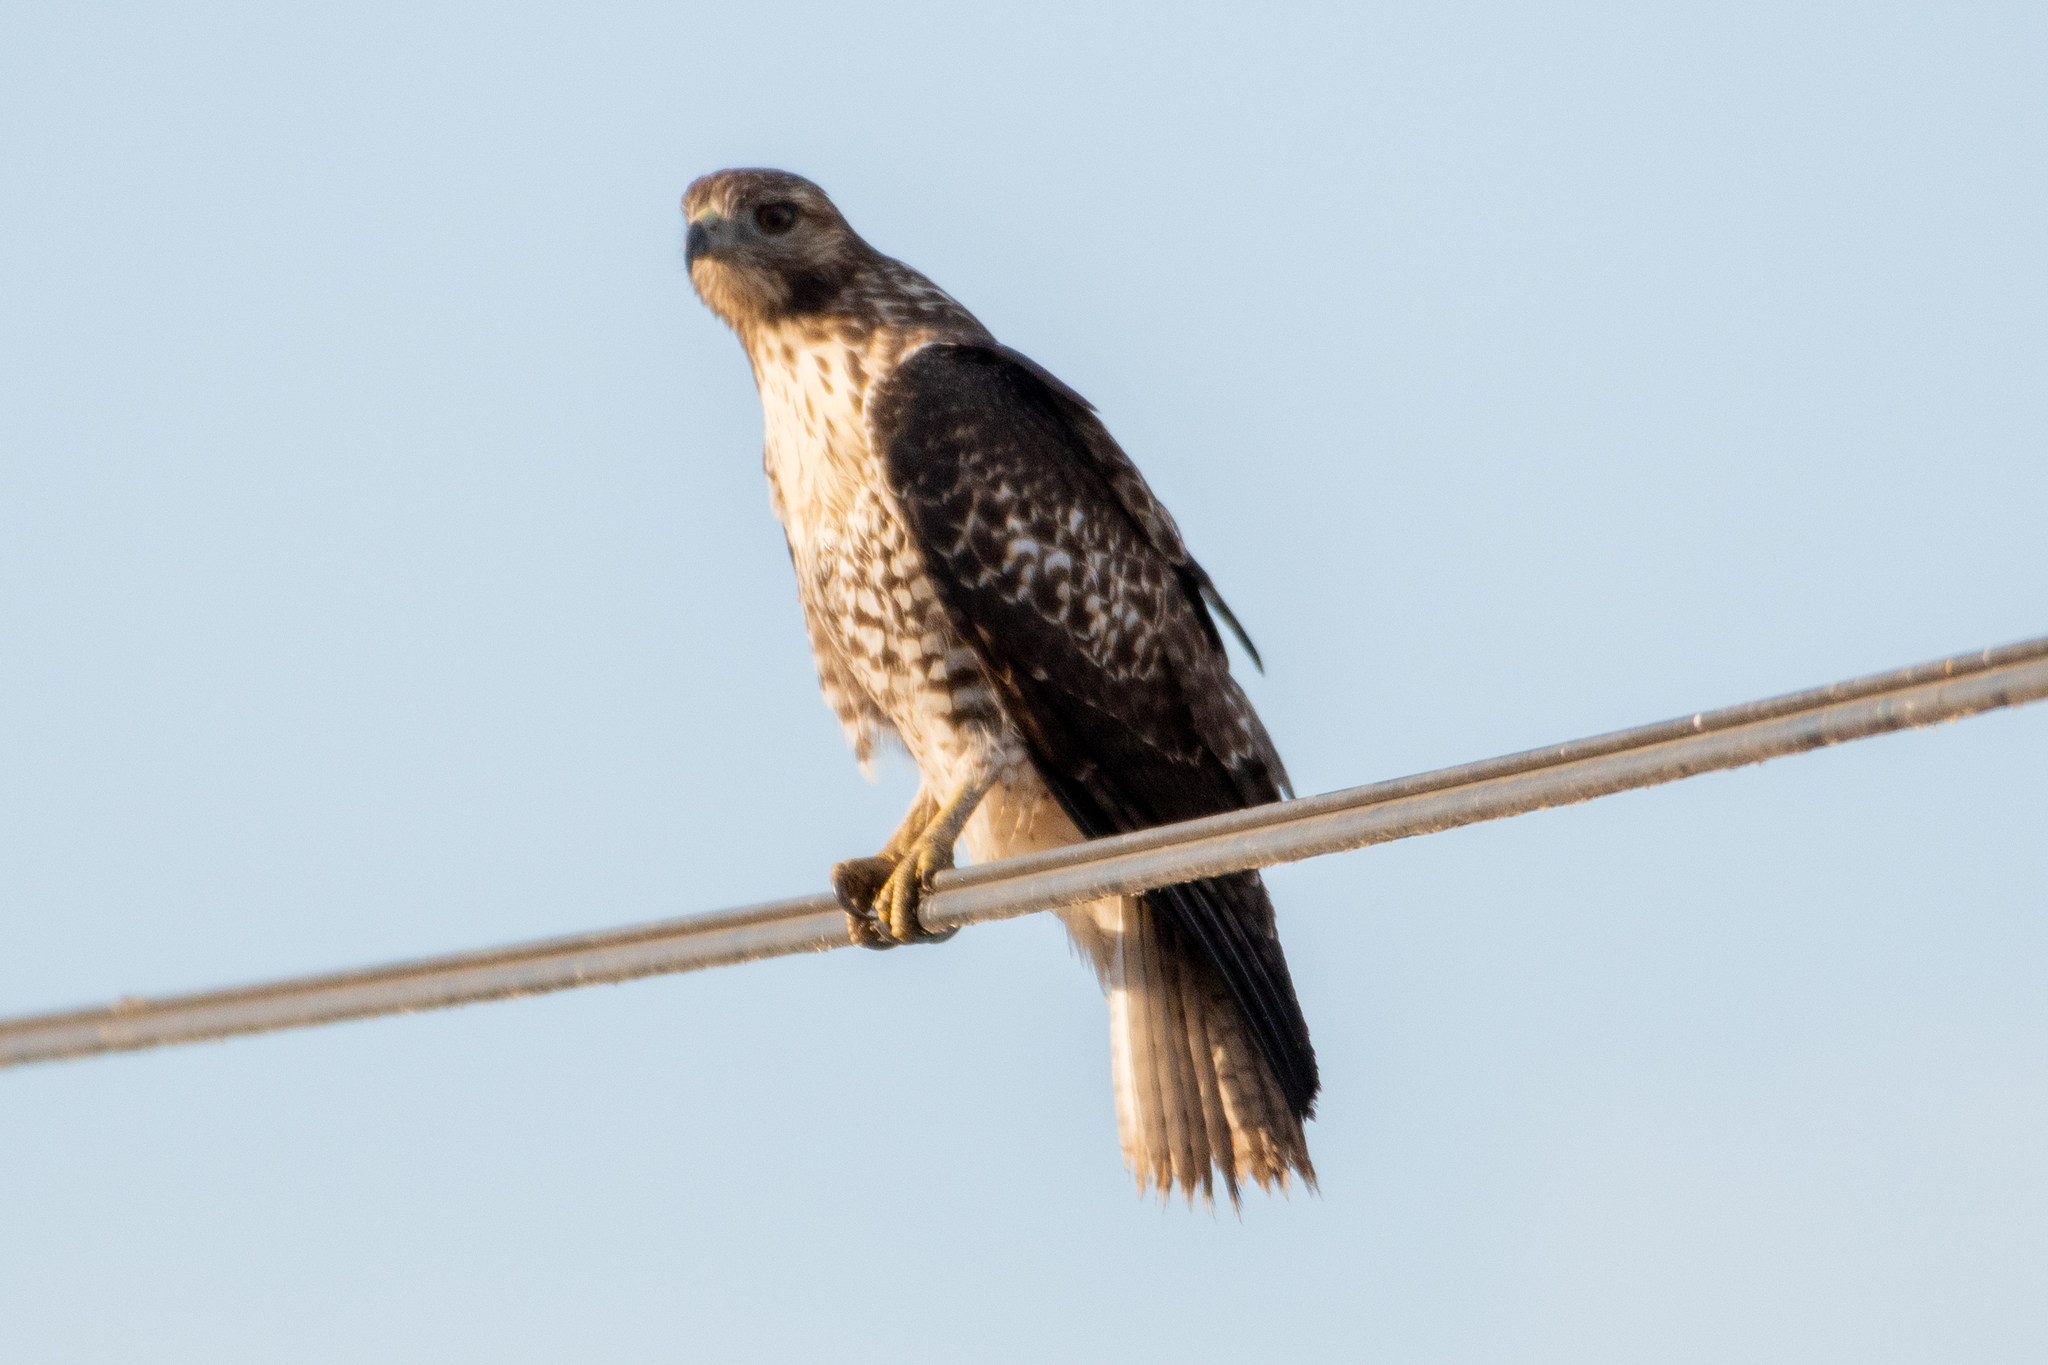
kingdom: Animalia
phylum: Chordata
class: Aves
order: Accipitriformes
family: Accipitridae
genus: Buteo
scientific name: Buteo jamaicensis
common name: Red-tailed hawk
